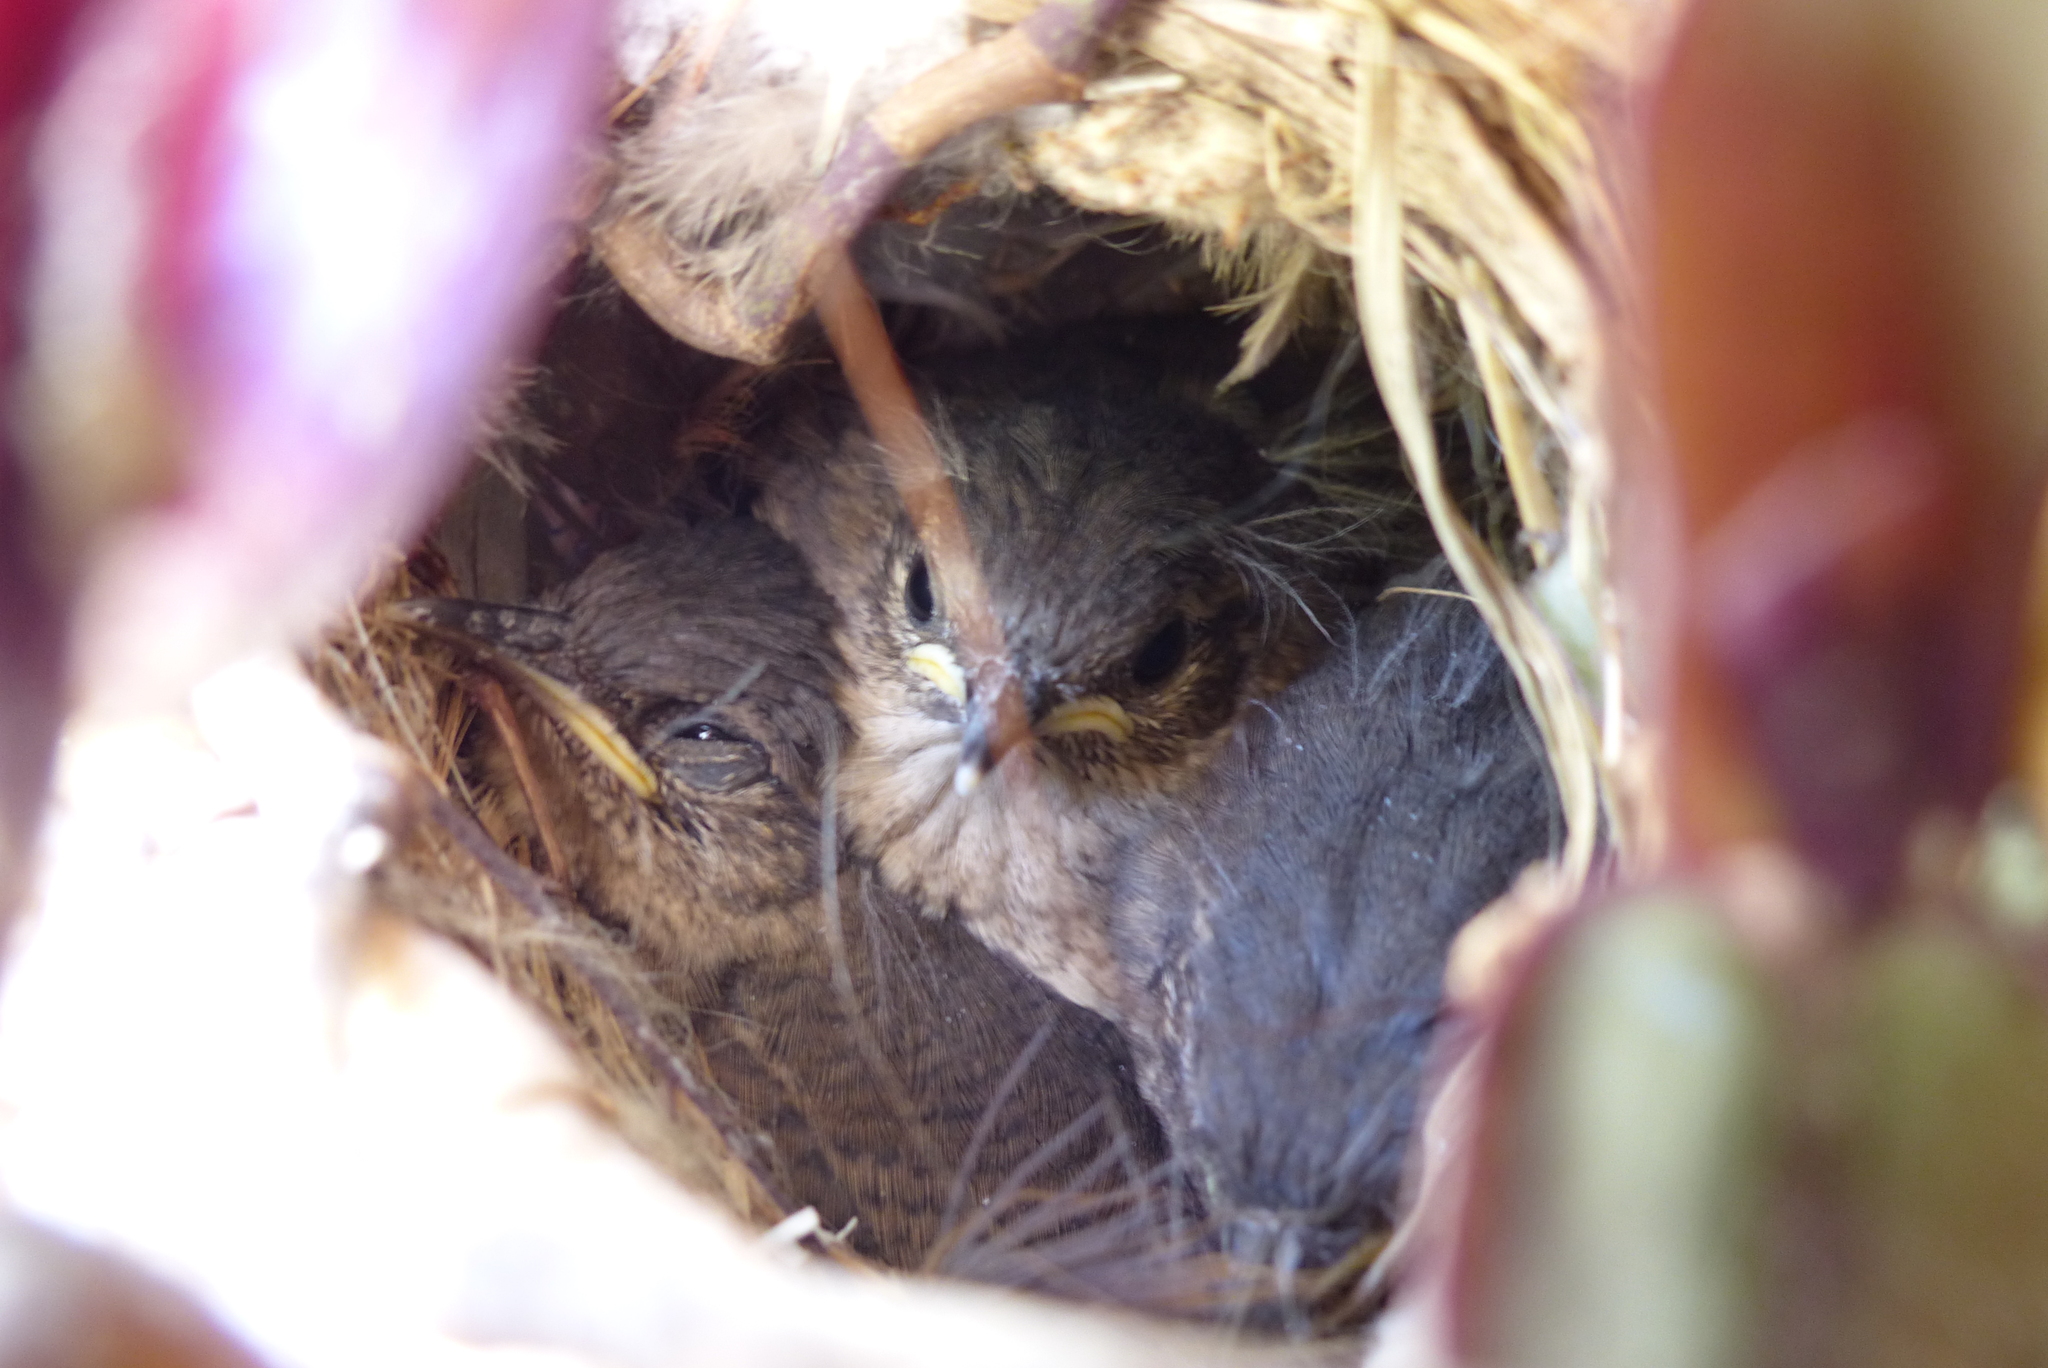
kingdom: Animalia
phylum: Chordata
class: Aves
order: Passeriformes
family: Troglodytidae
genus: Troglodytes
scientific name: Troglodytes aedon
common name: House wren
